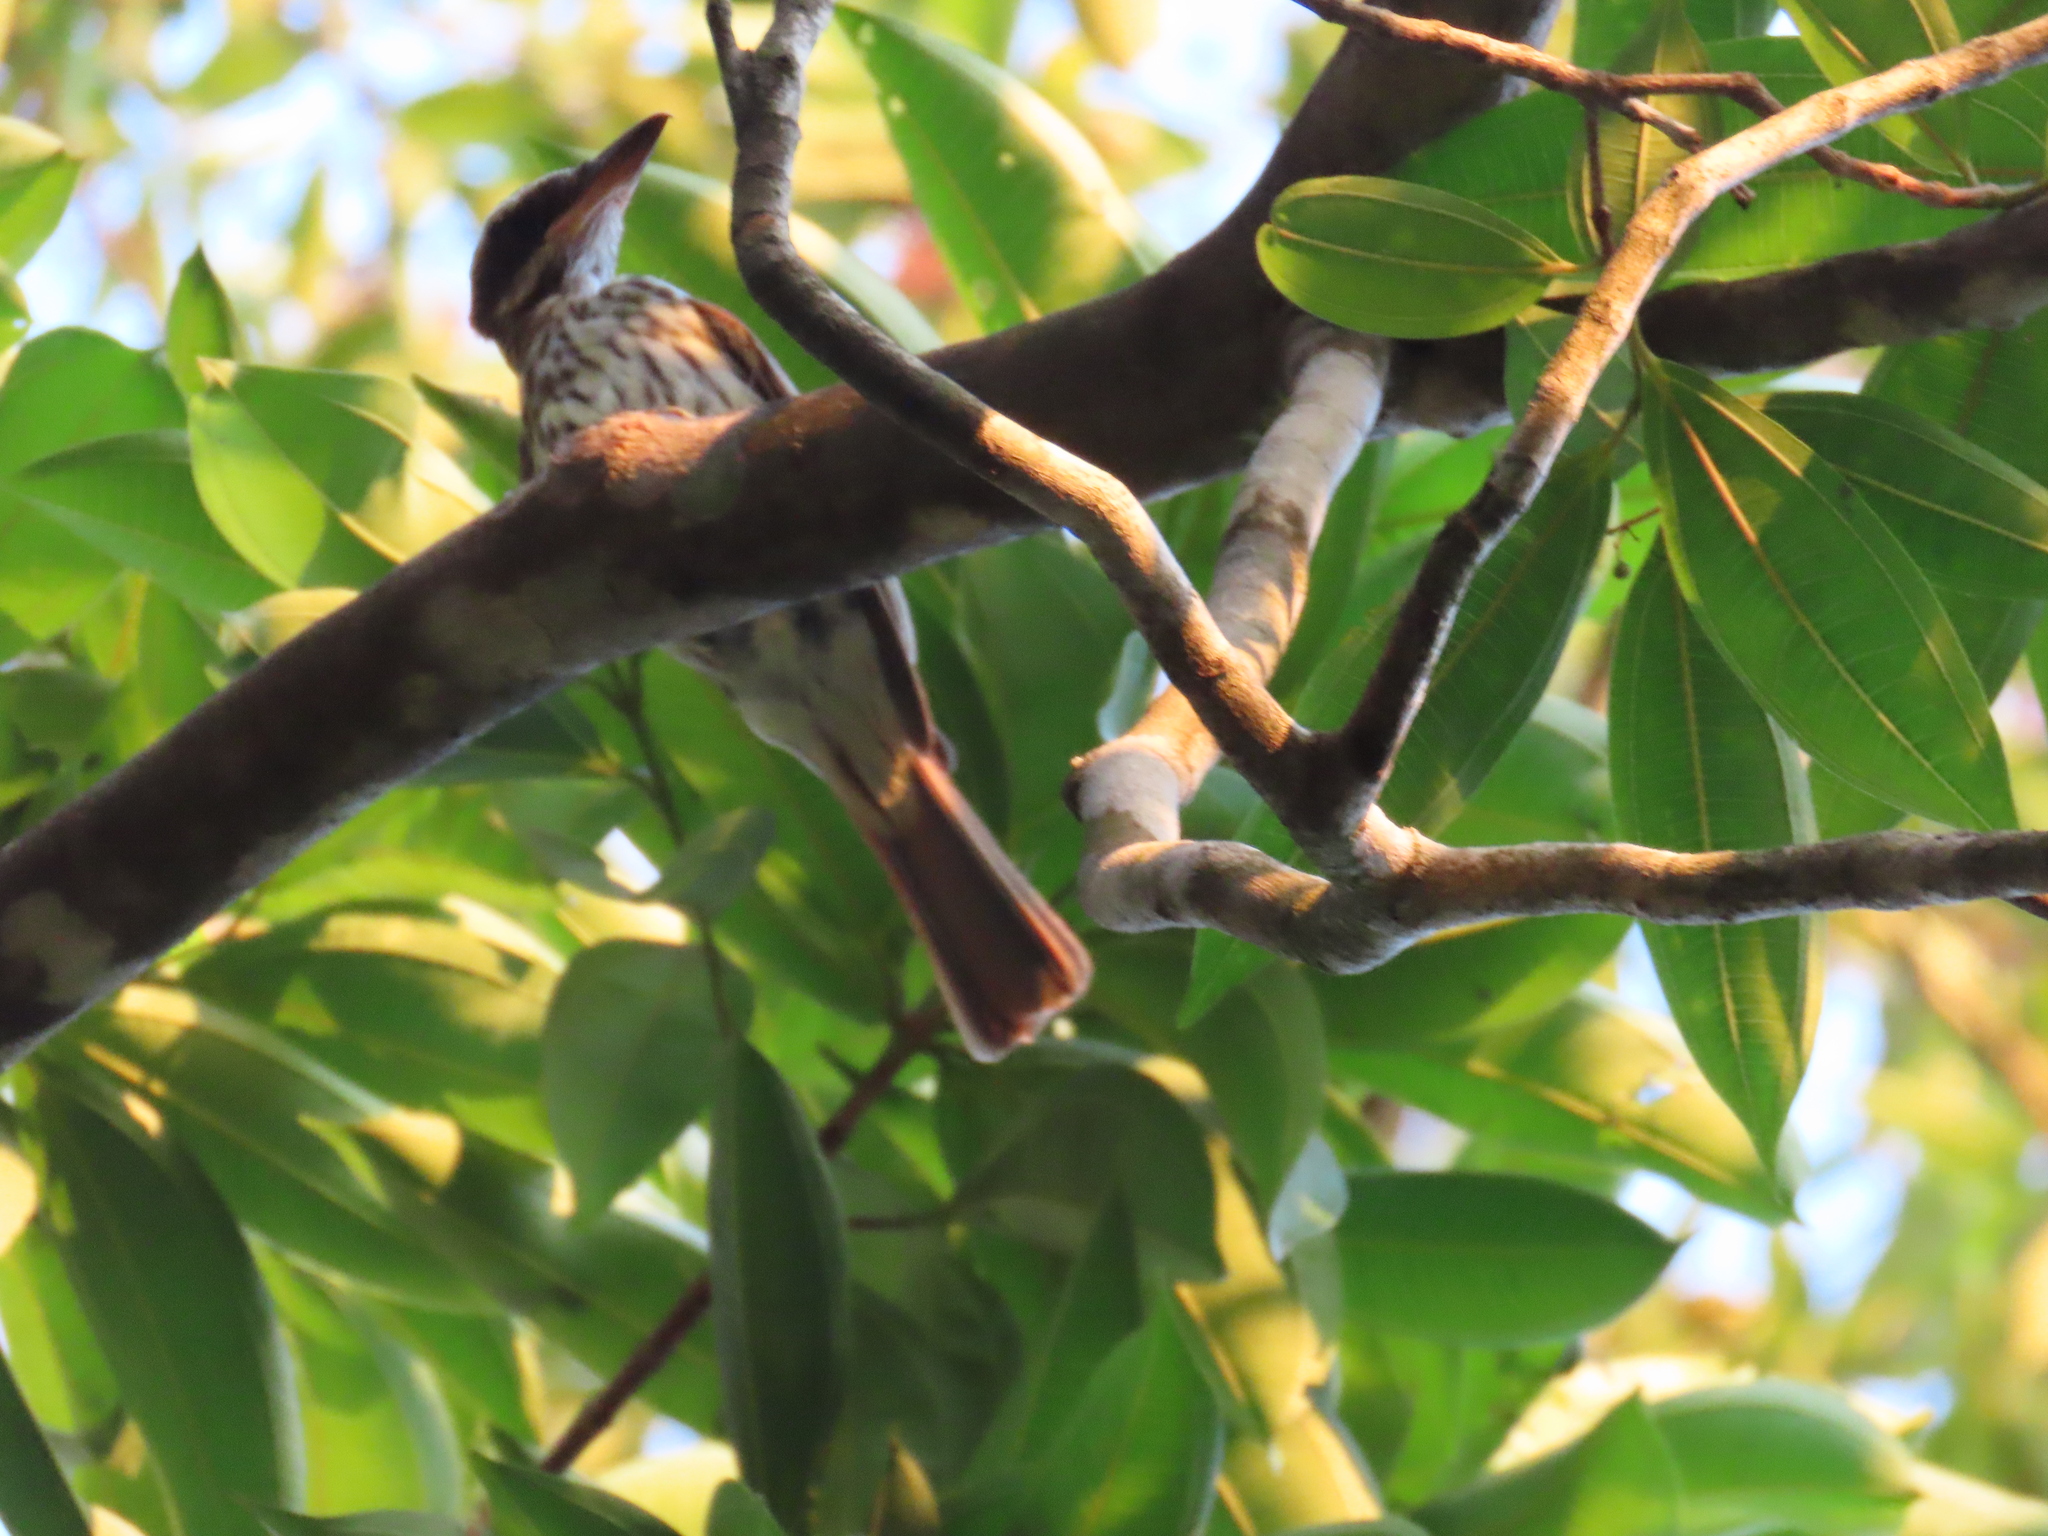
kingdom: Animalia
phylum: Chordata
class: Aves
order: Passeriformes
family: Tyrannidae
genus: Myiodynastes
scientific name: Myiodynastes maculatus
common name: Streaked flycatcher
